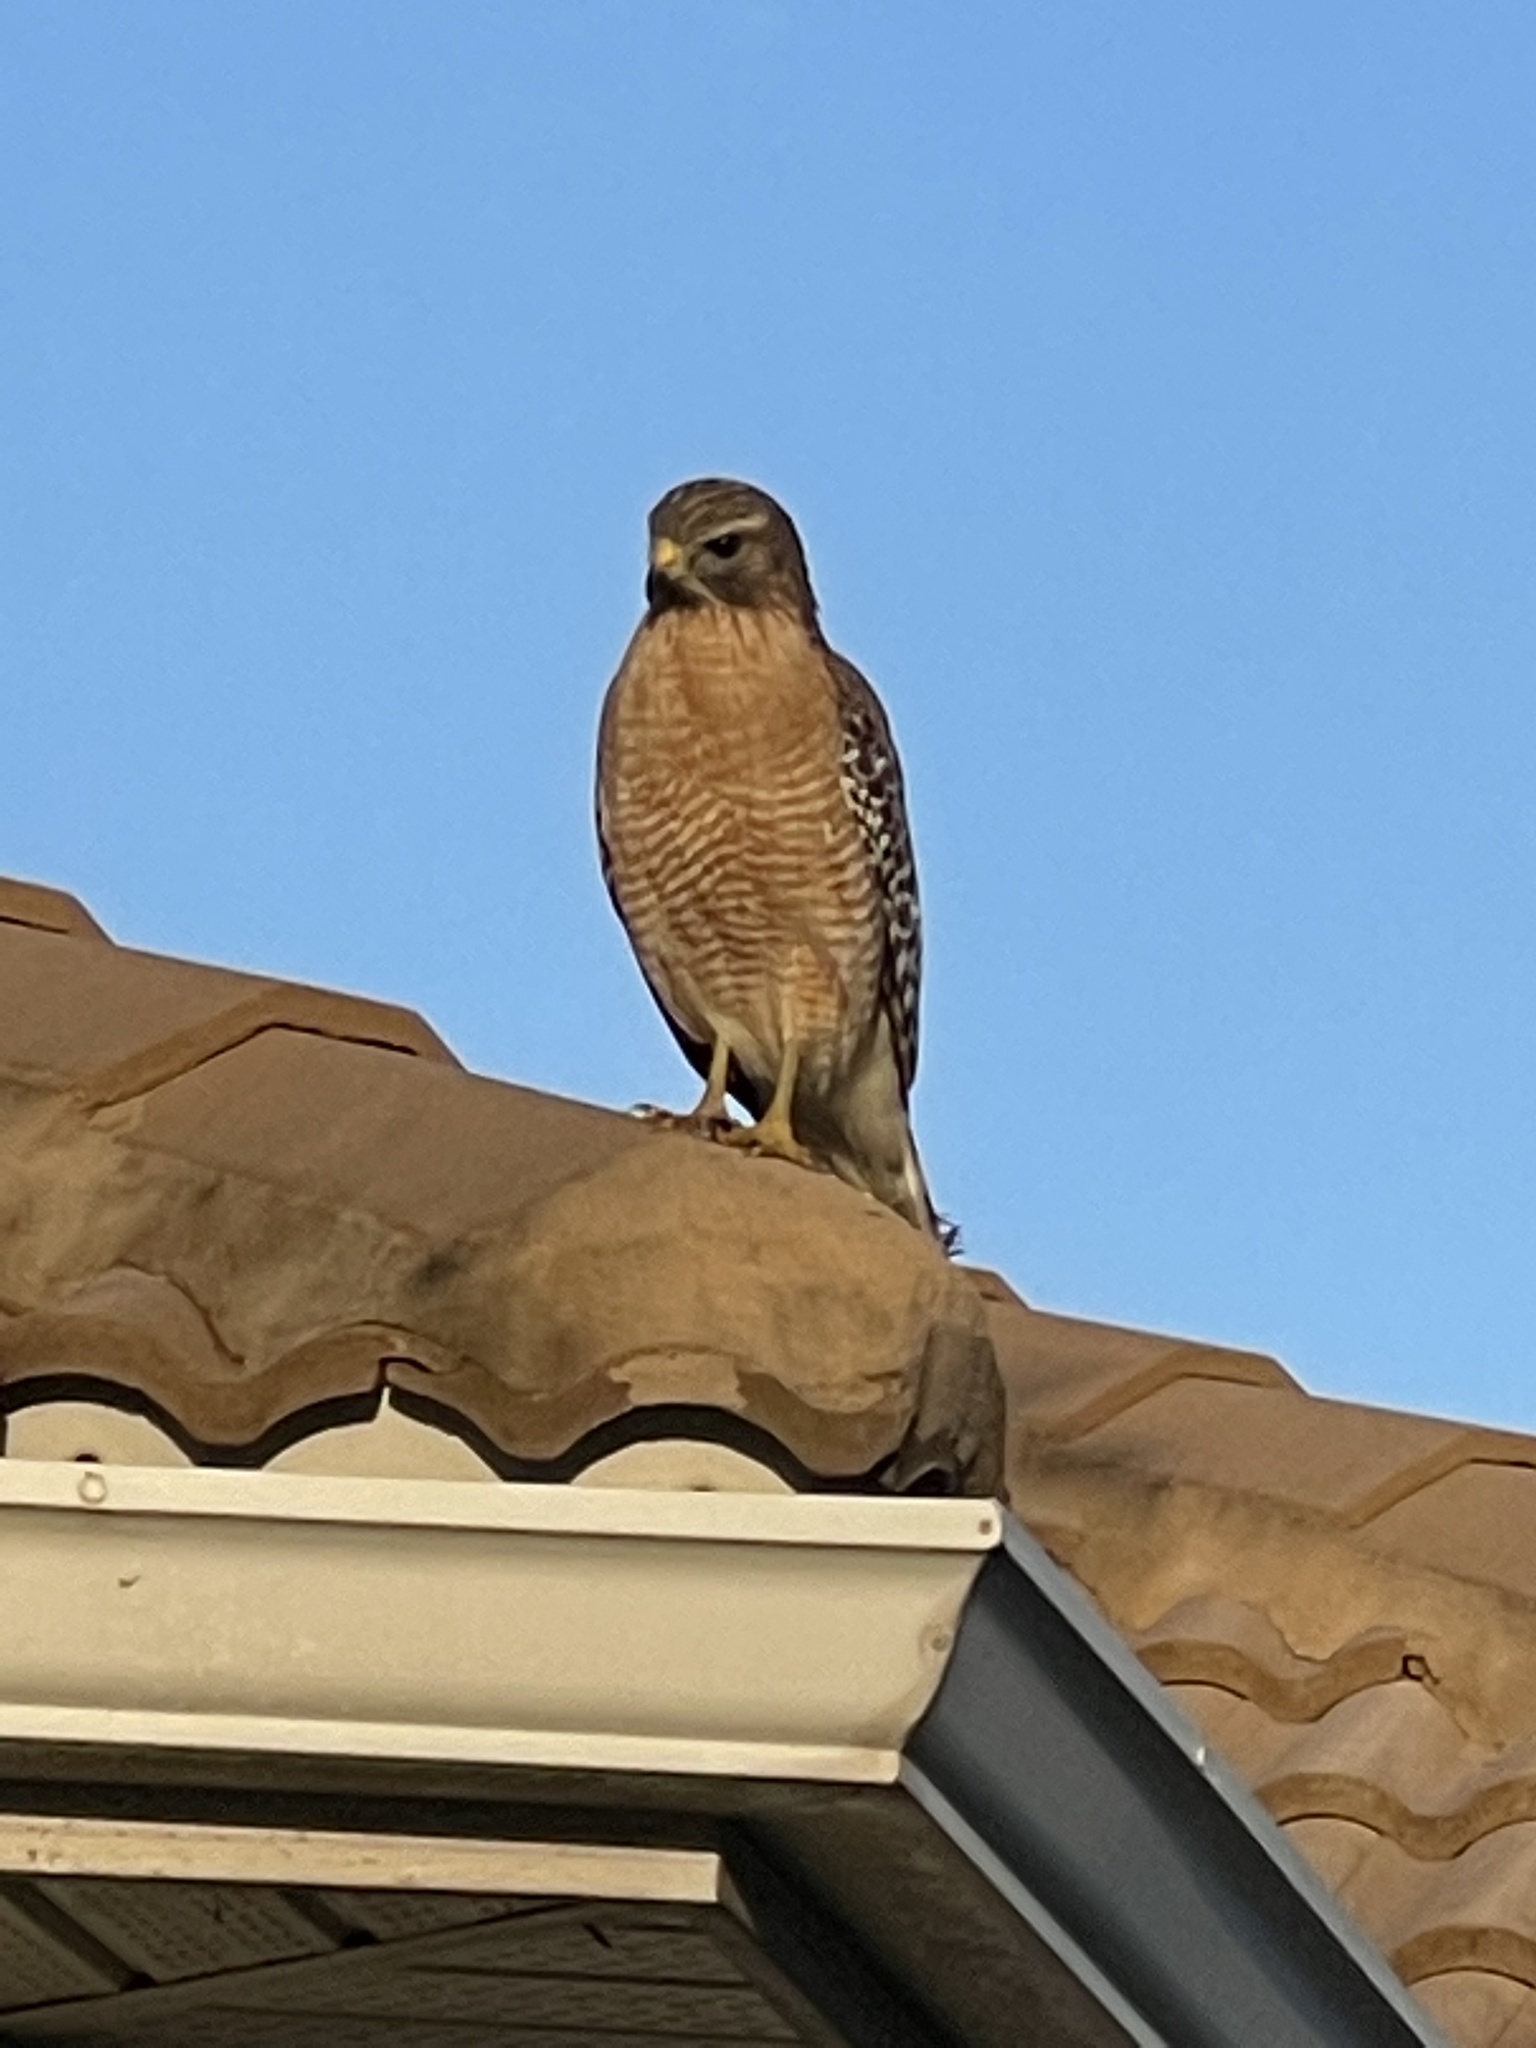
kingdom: Animalia
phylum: Chordata
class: Aves
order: Accipitriformes
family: Accipitridae
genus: Buteo
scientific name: Buteo lineatus
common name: Red-shouldered hawk
